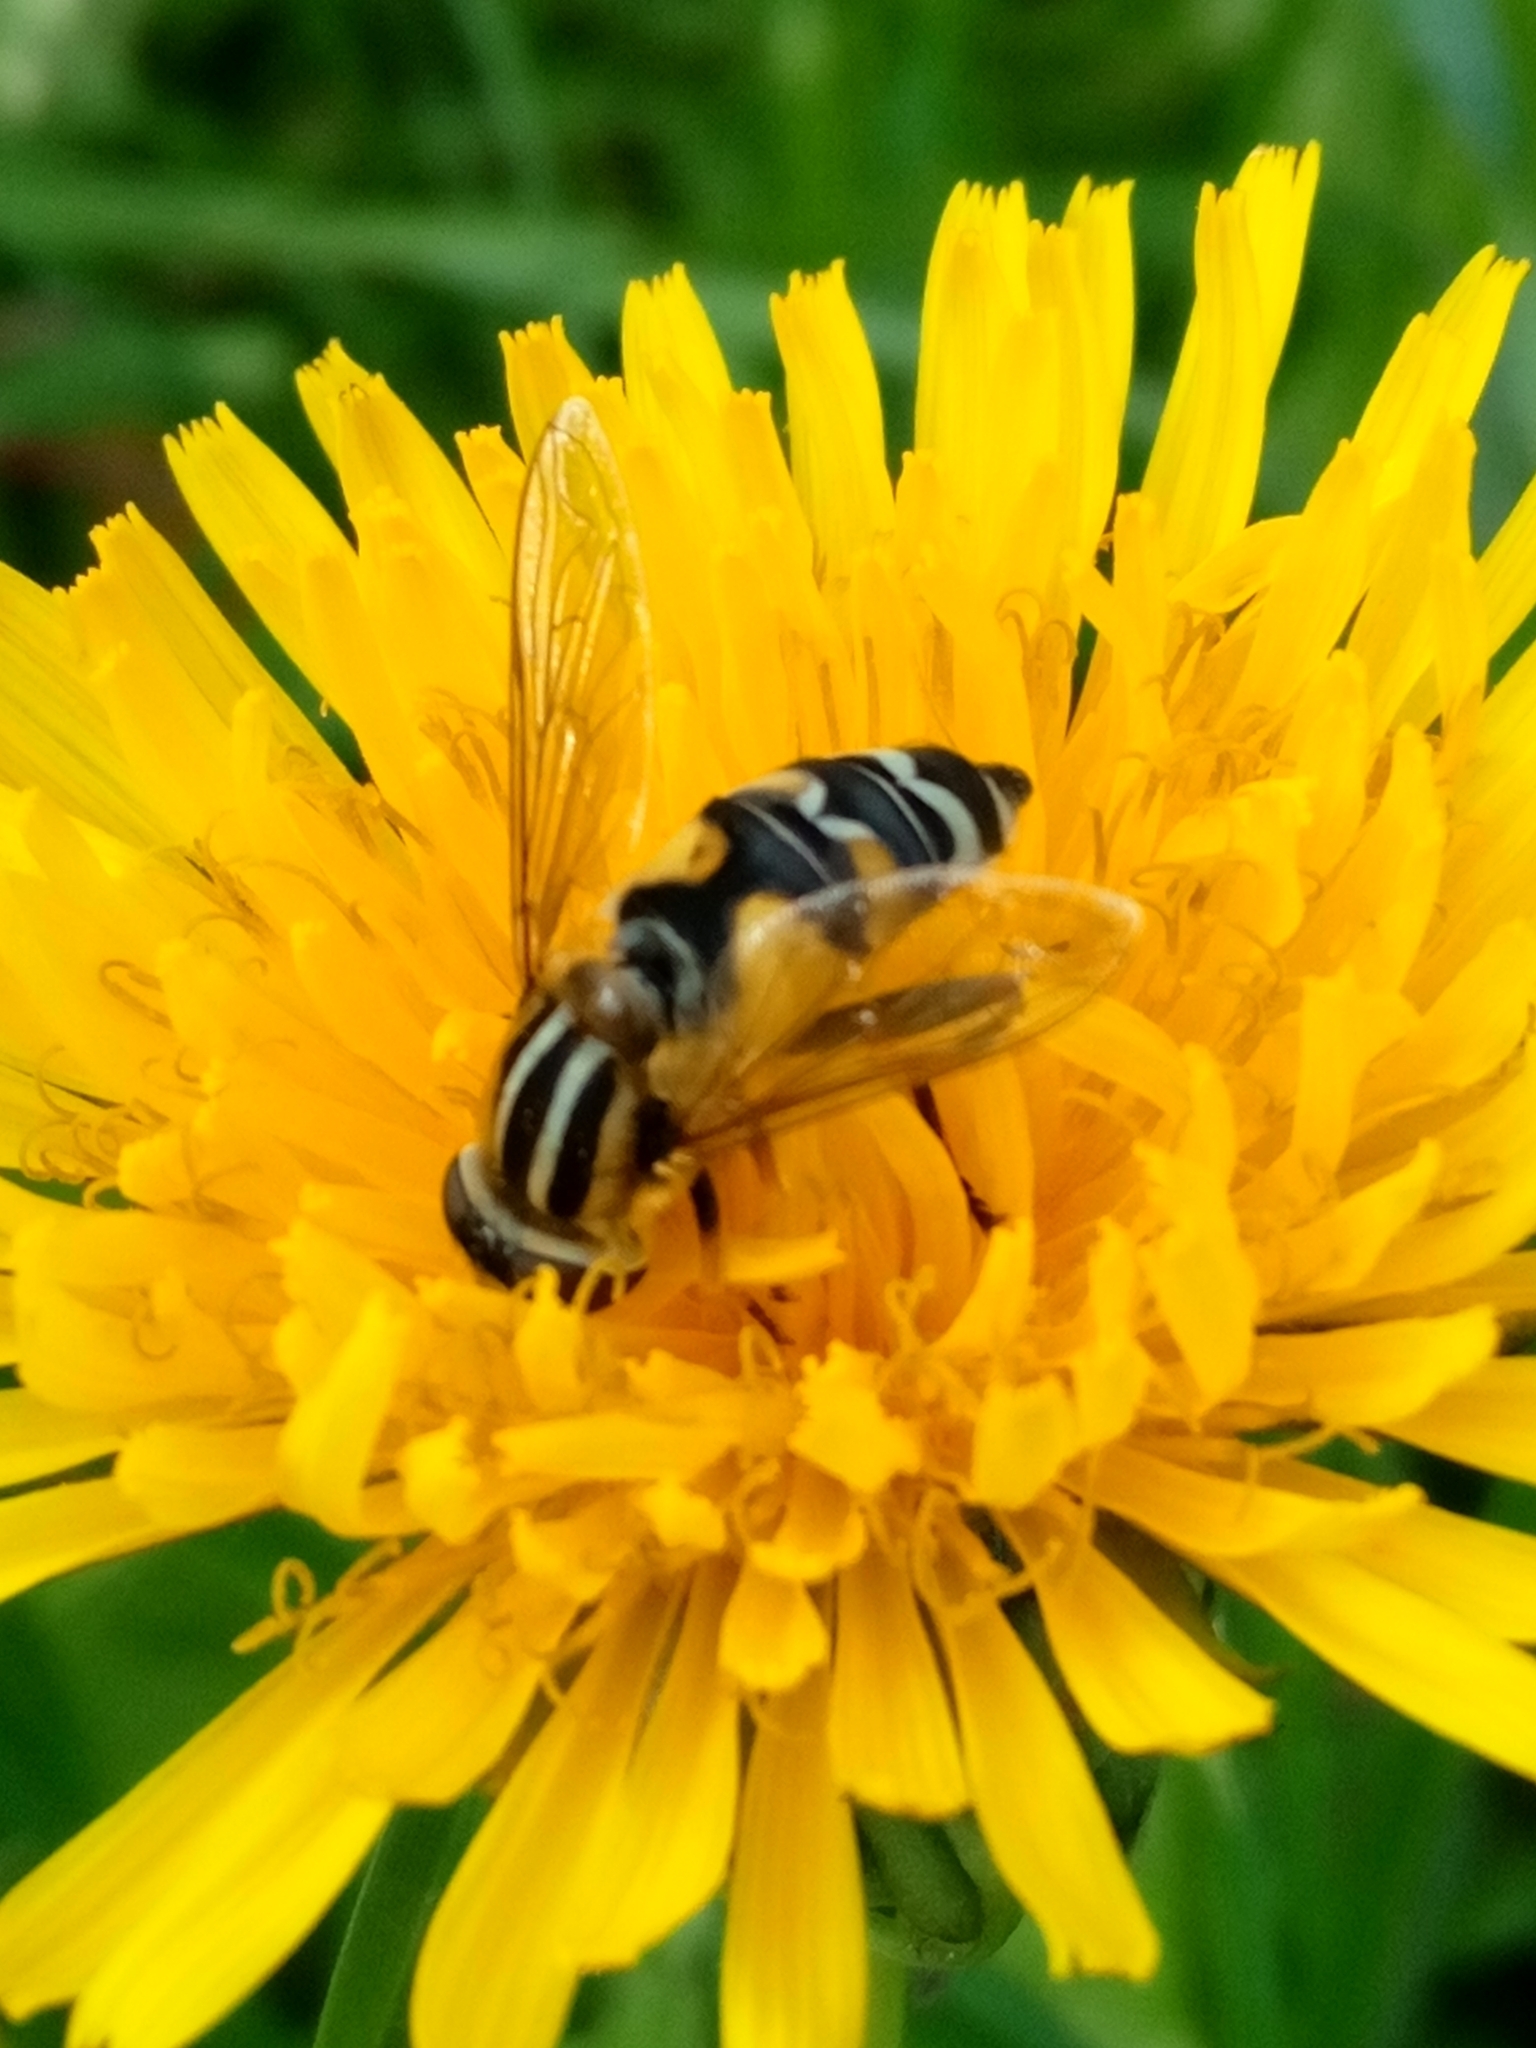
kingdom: Animalia
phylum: Arthropoda
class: Insecta
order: Diptera
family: Syrphidae
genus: Helophilus
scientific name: Helophilus trivittatus
